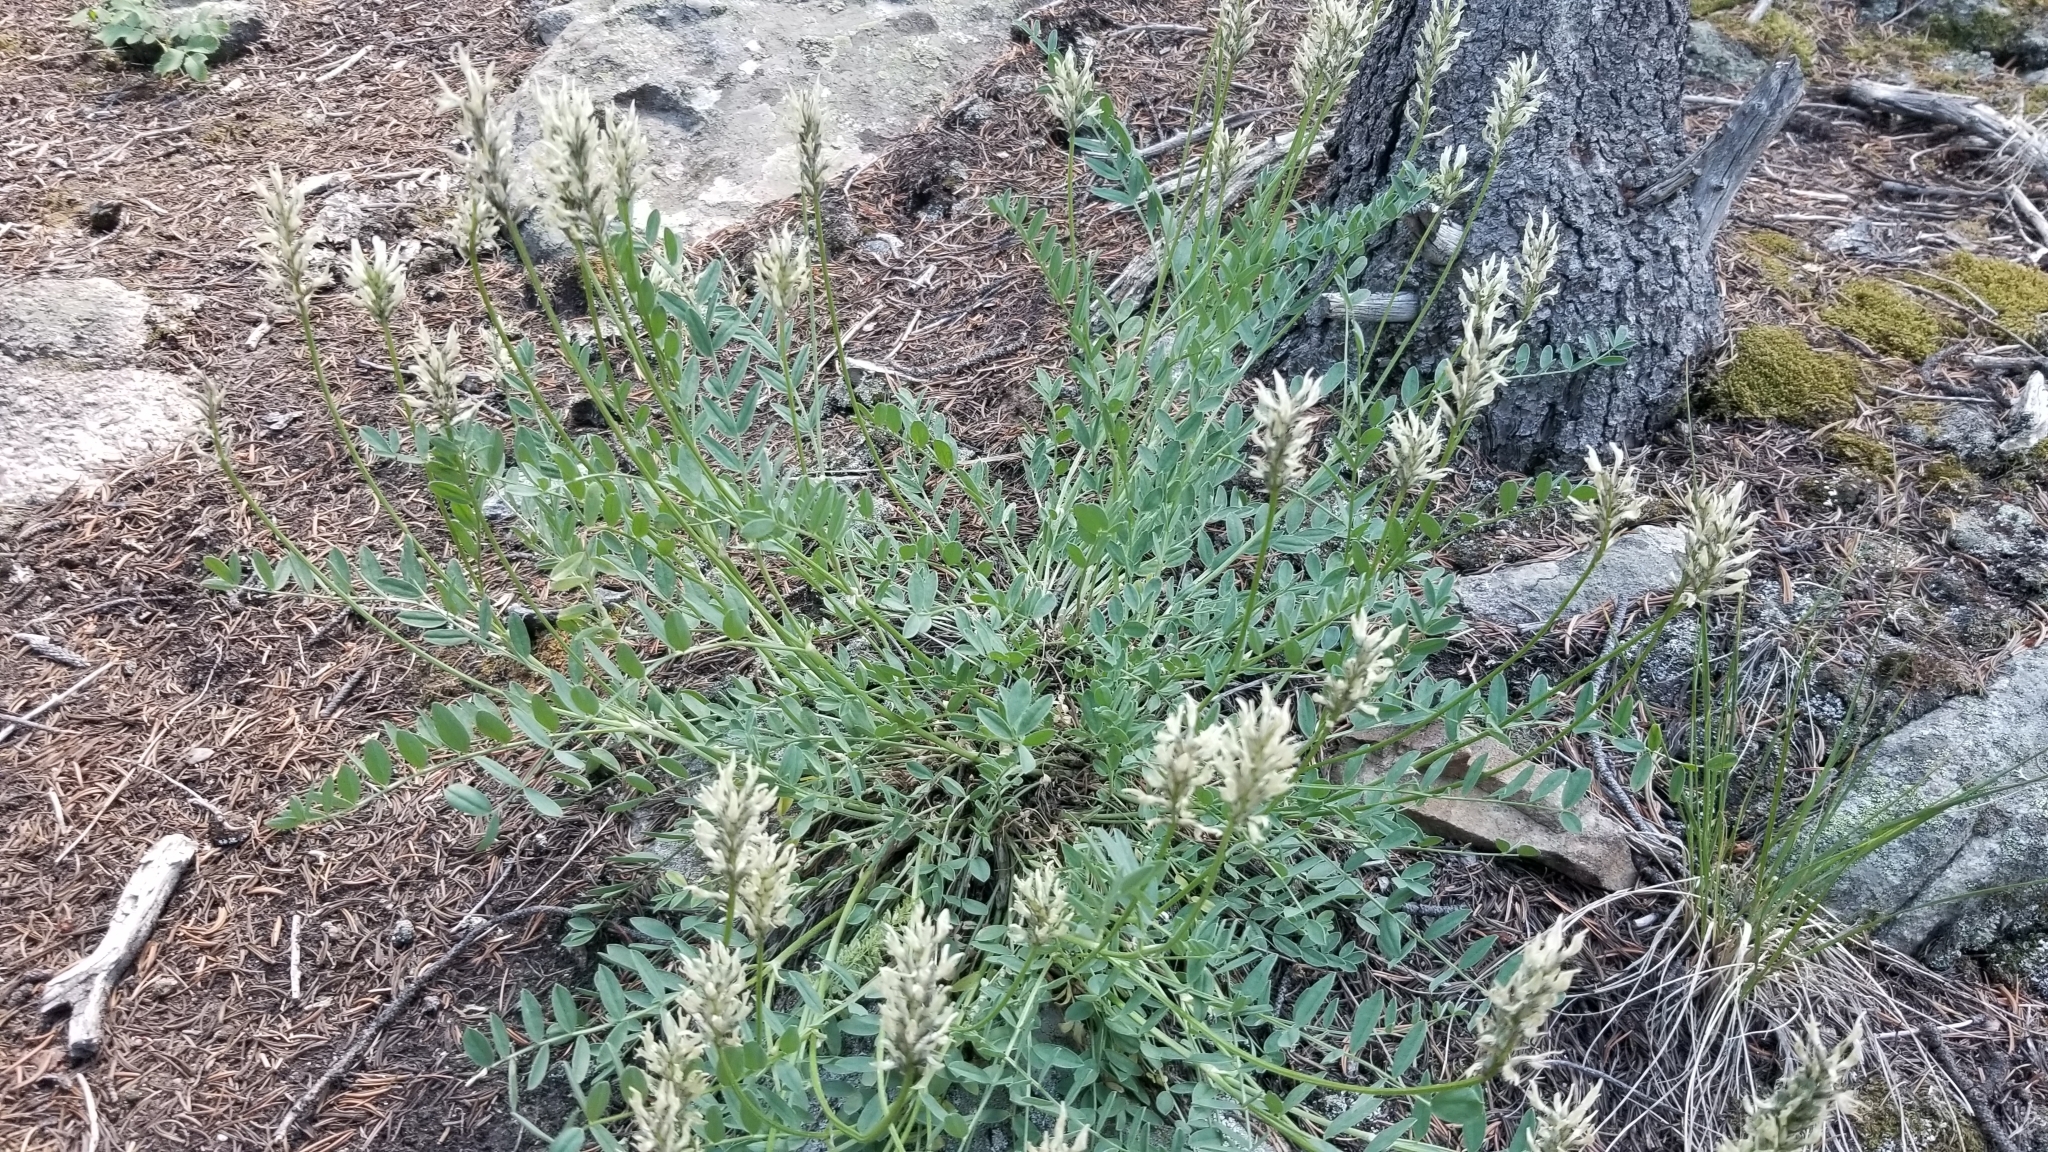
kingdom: Plantae
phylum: Tracheophyta
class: Magnoliopsida
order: Fabales
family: Fabaceae
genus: Astragalus
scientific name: Astragalus laxmannii
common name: Laxmann's milk-vetch
